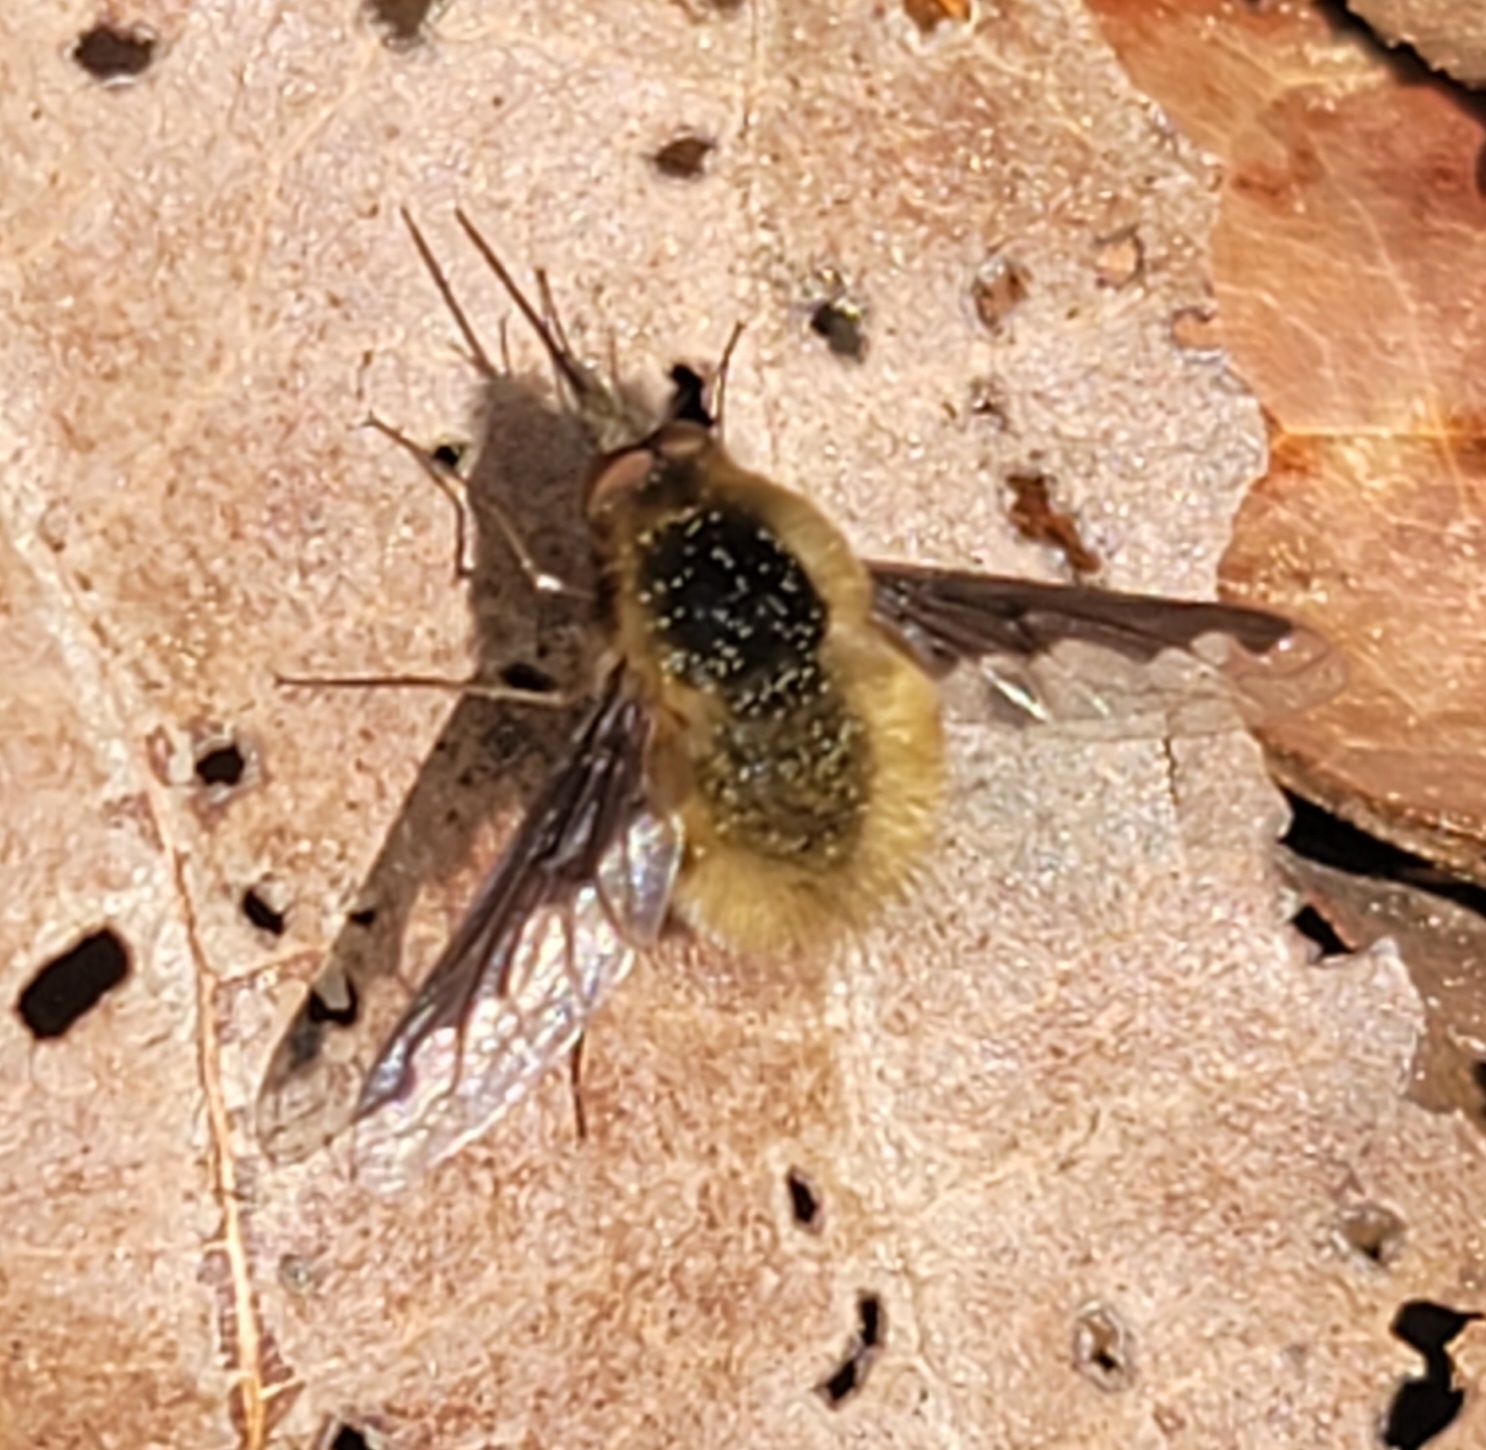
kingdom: Animalia
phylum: Arthropoda
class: Insecta
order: Diptera
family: Bombyliidae
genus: Bombylius
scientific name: Bombylius major
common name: Bee fly
